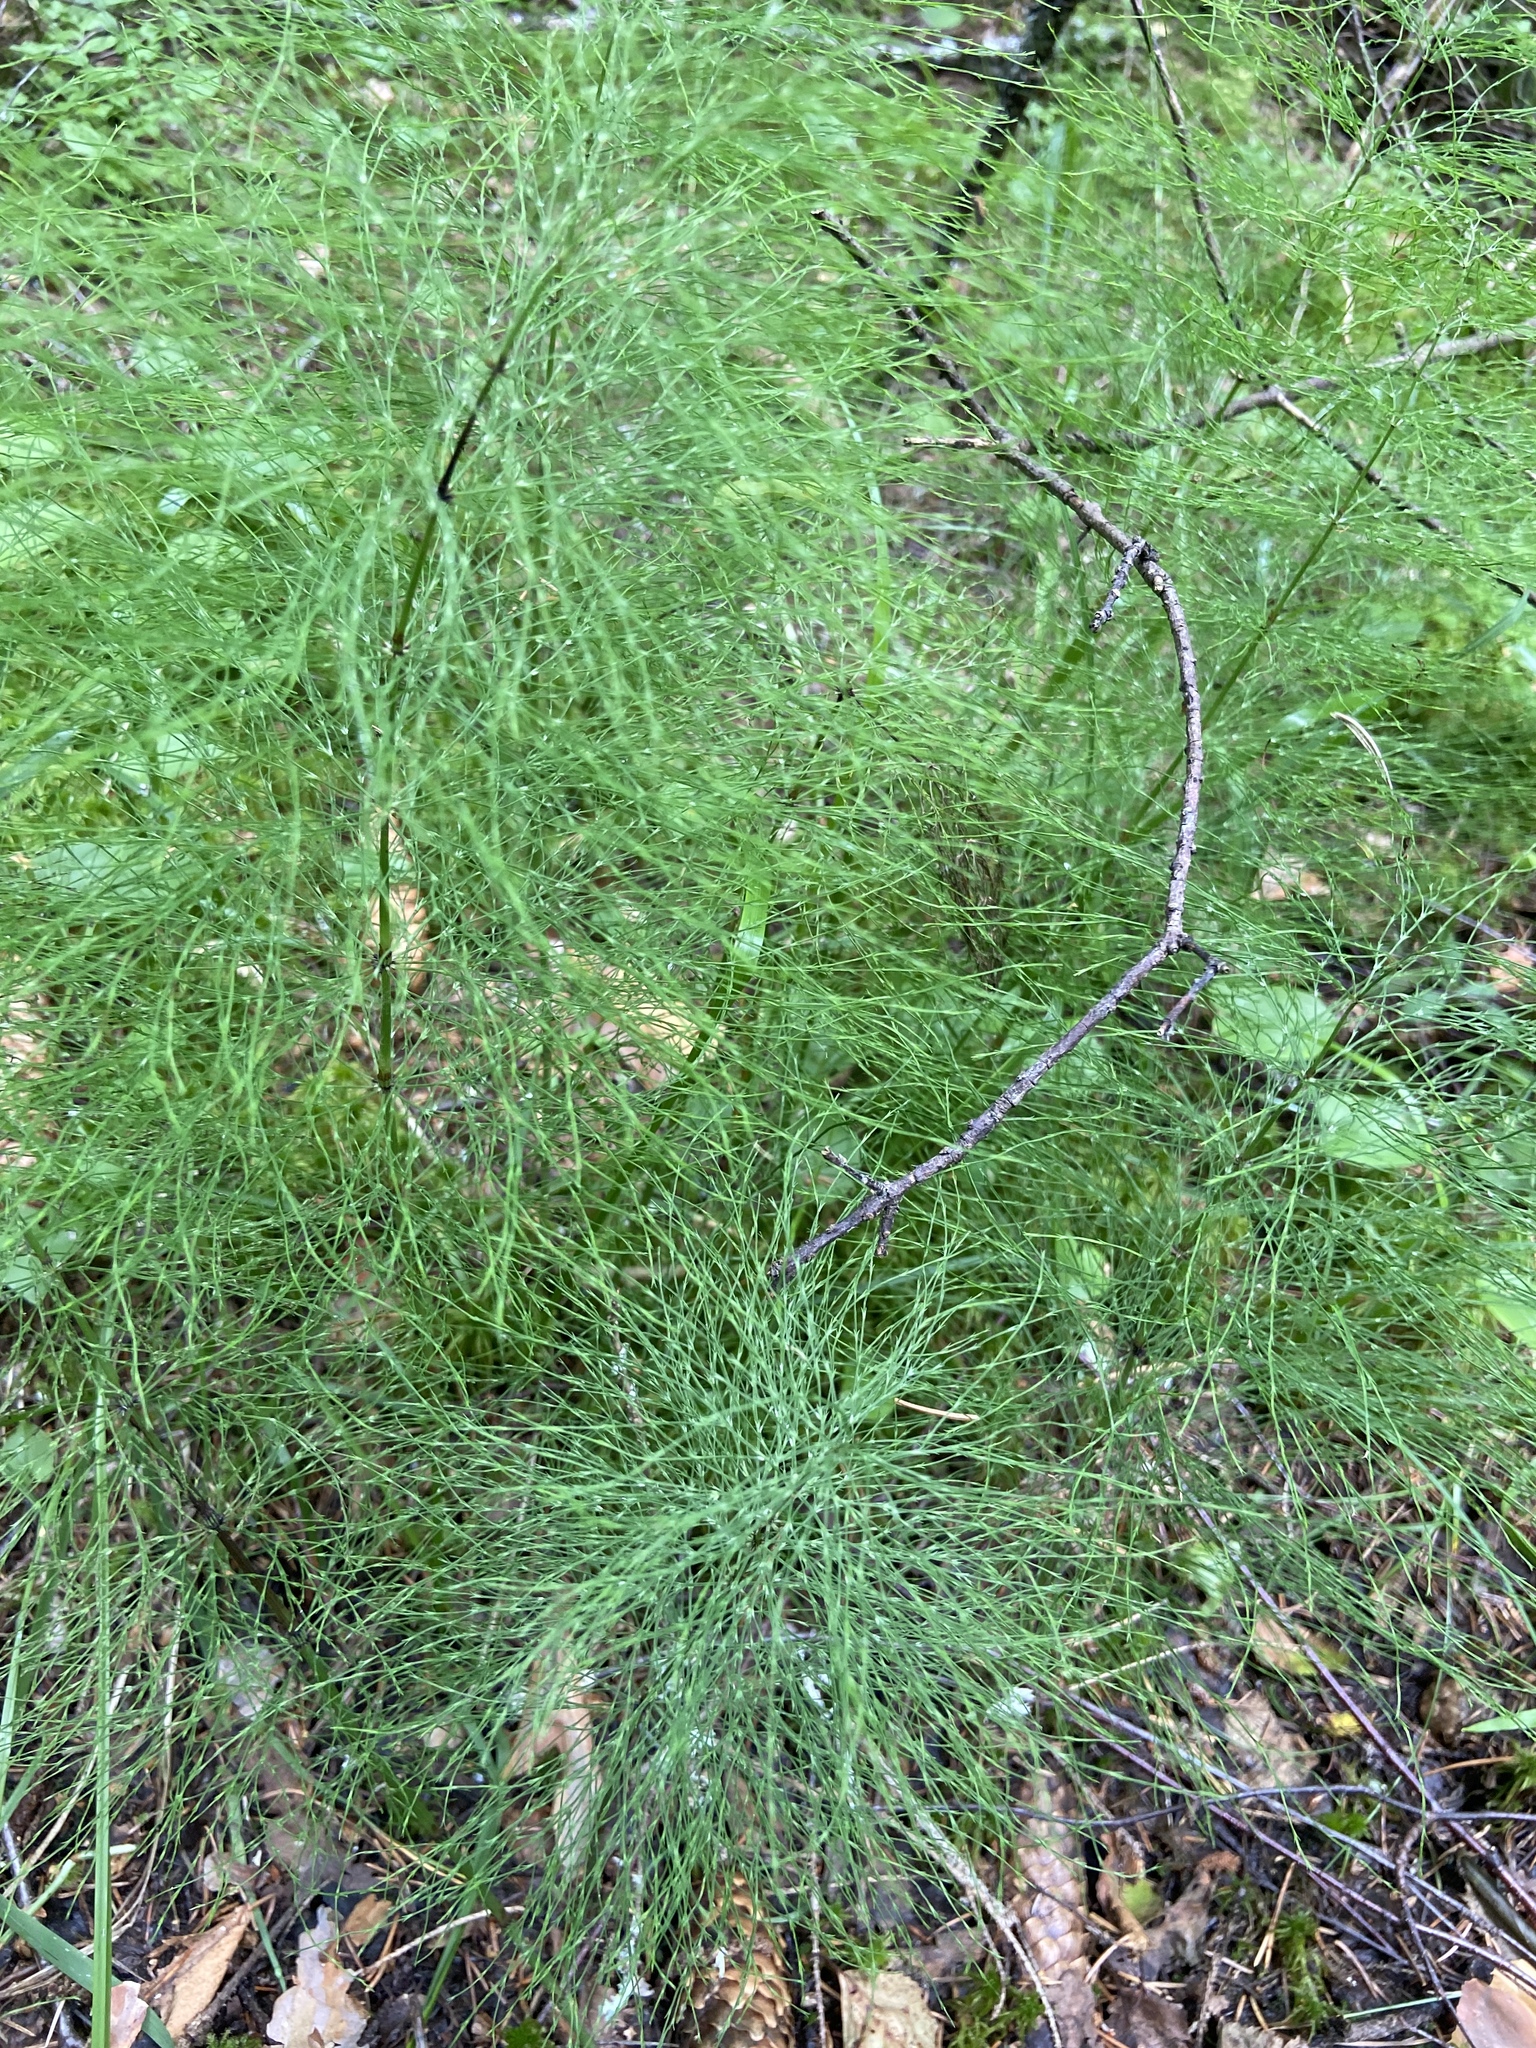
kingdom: Plantae
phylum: Tracheophyta
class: Polypodiopsida
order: Equisetales
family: Equisetaceae
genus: Equisetum
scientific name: Equisetum sylvaticum
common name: Wood horsetail
